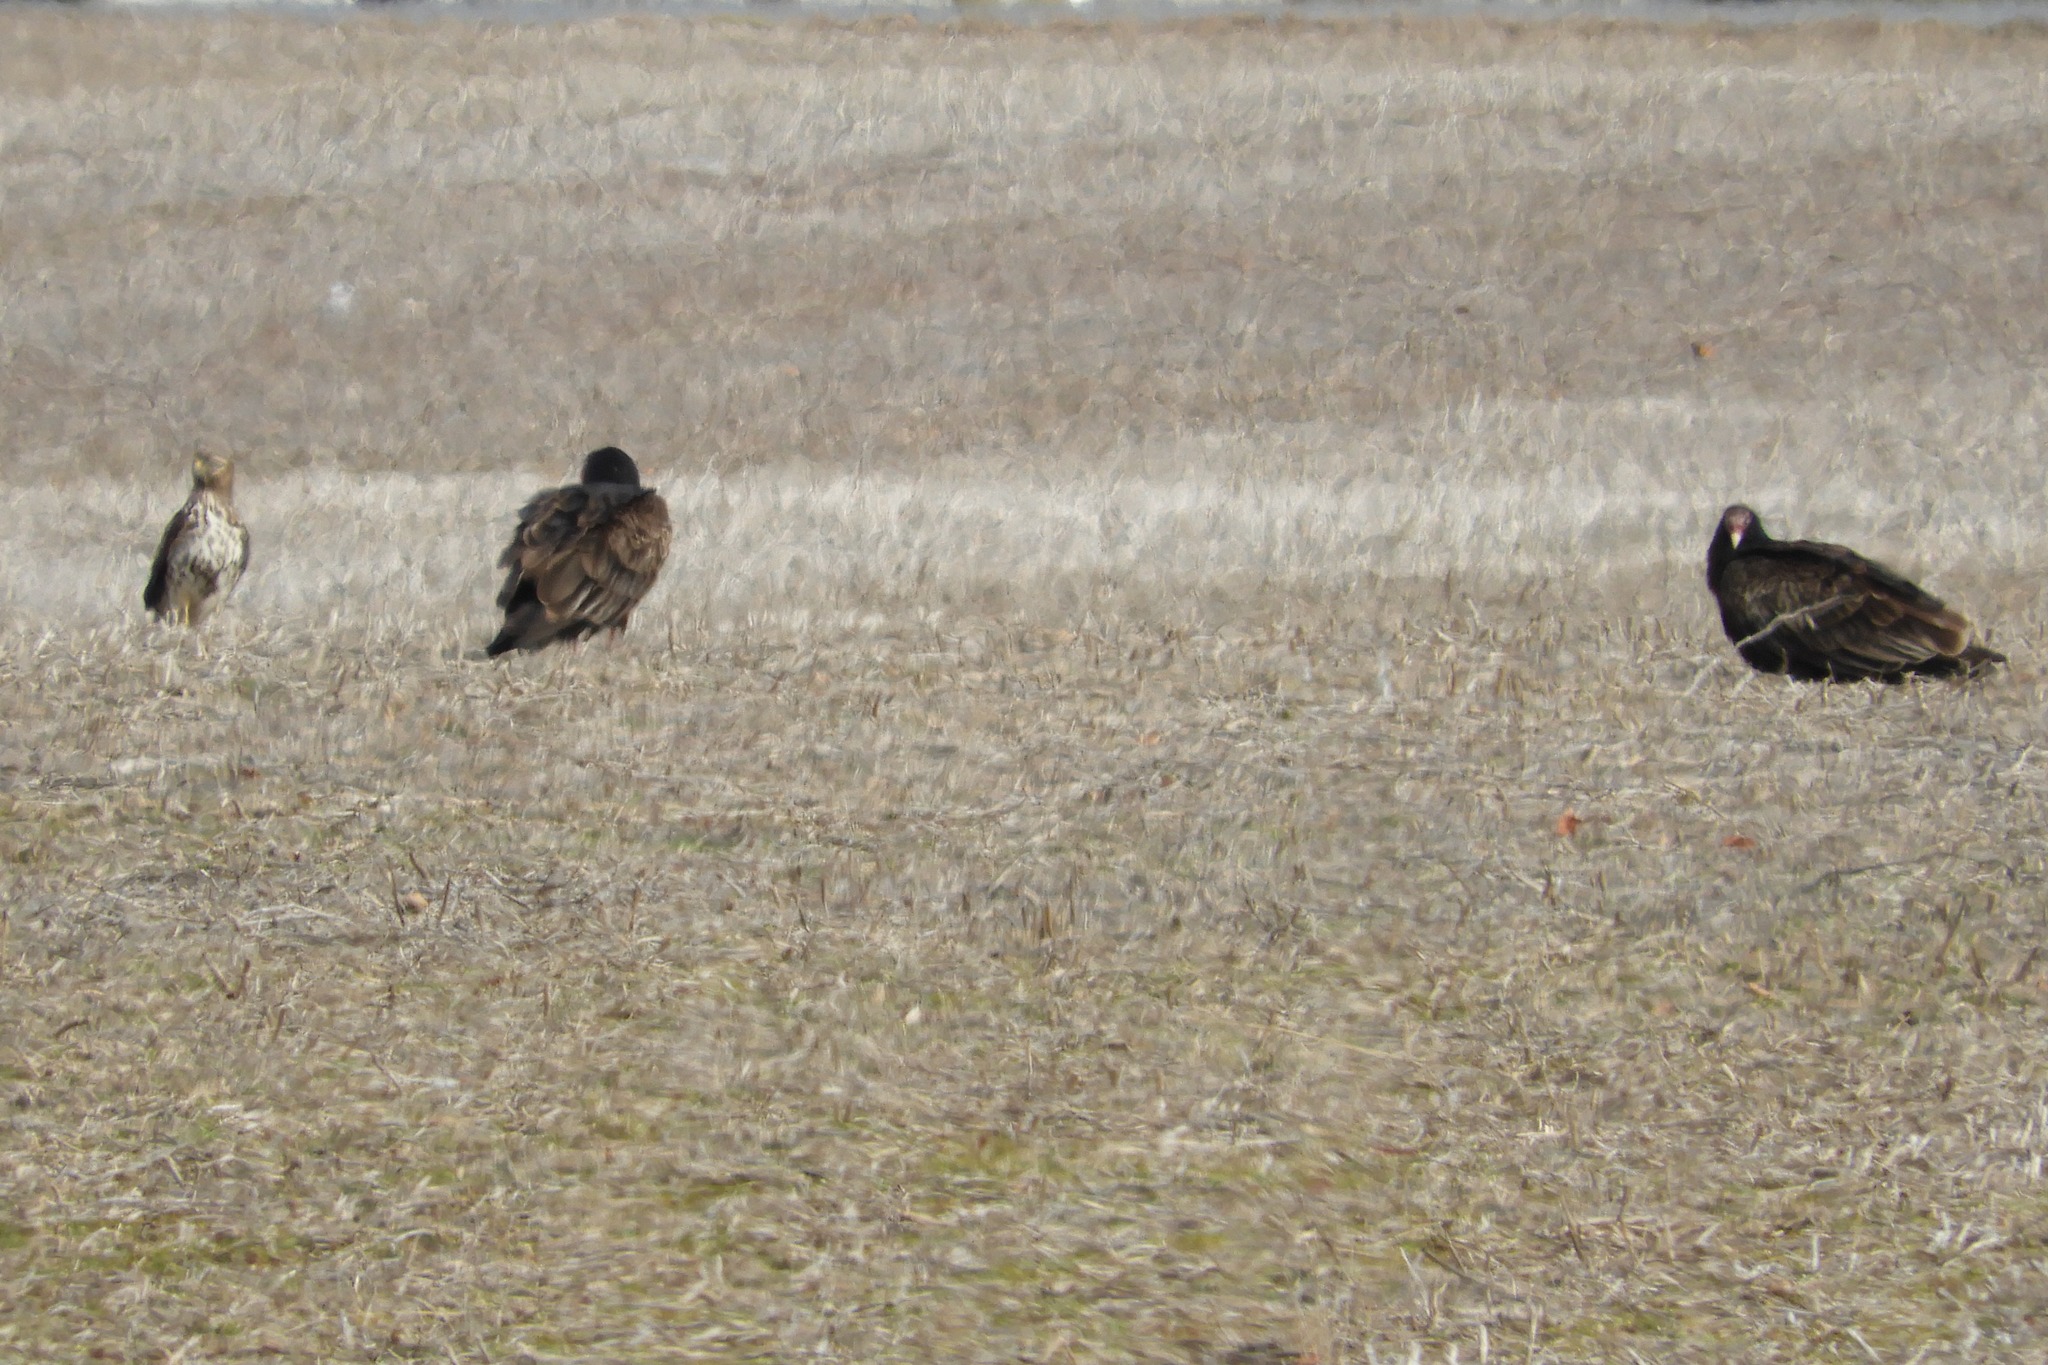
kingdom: Animalia
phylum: Chordata
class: Aves
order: Accipitriformes
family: Accipitridae
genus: Buteo
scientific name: Buteo lineatus
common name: Red-shouldered hawk
